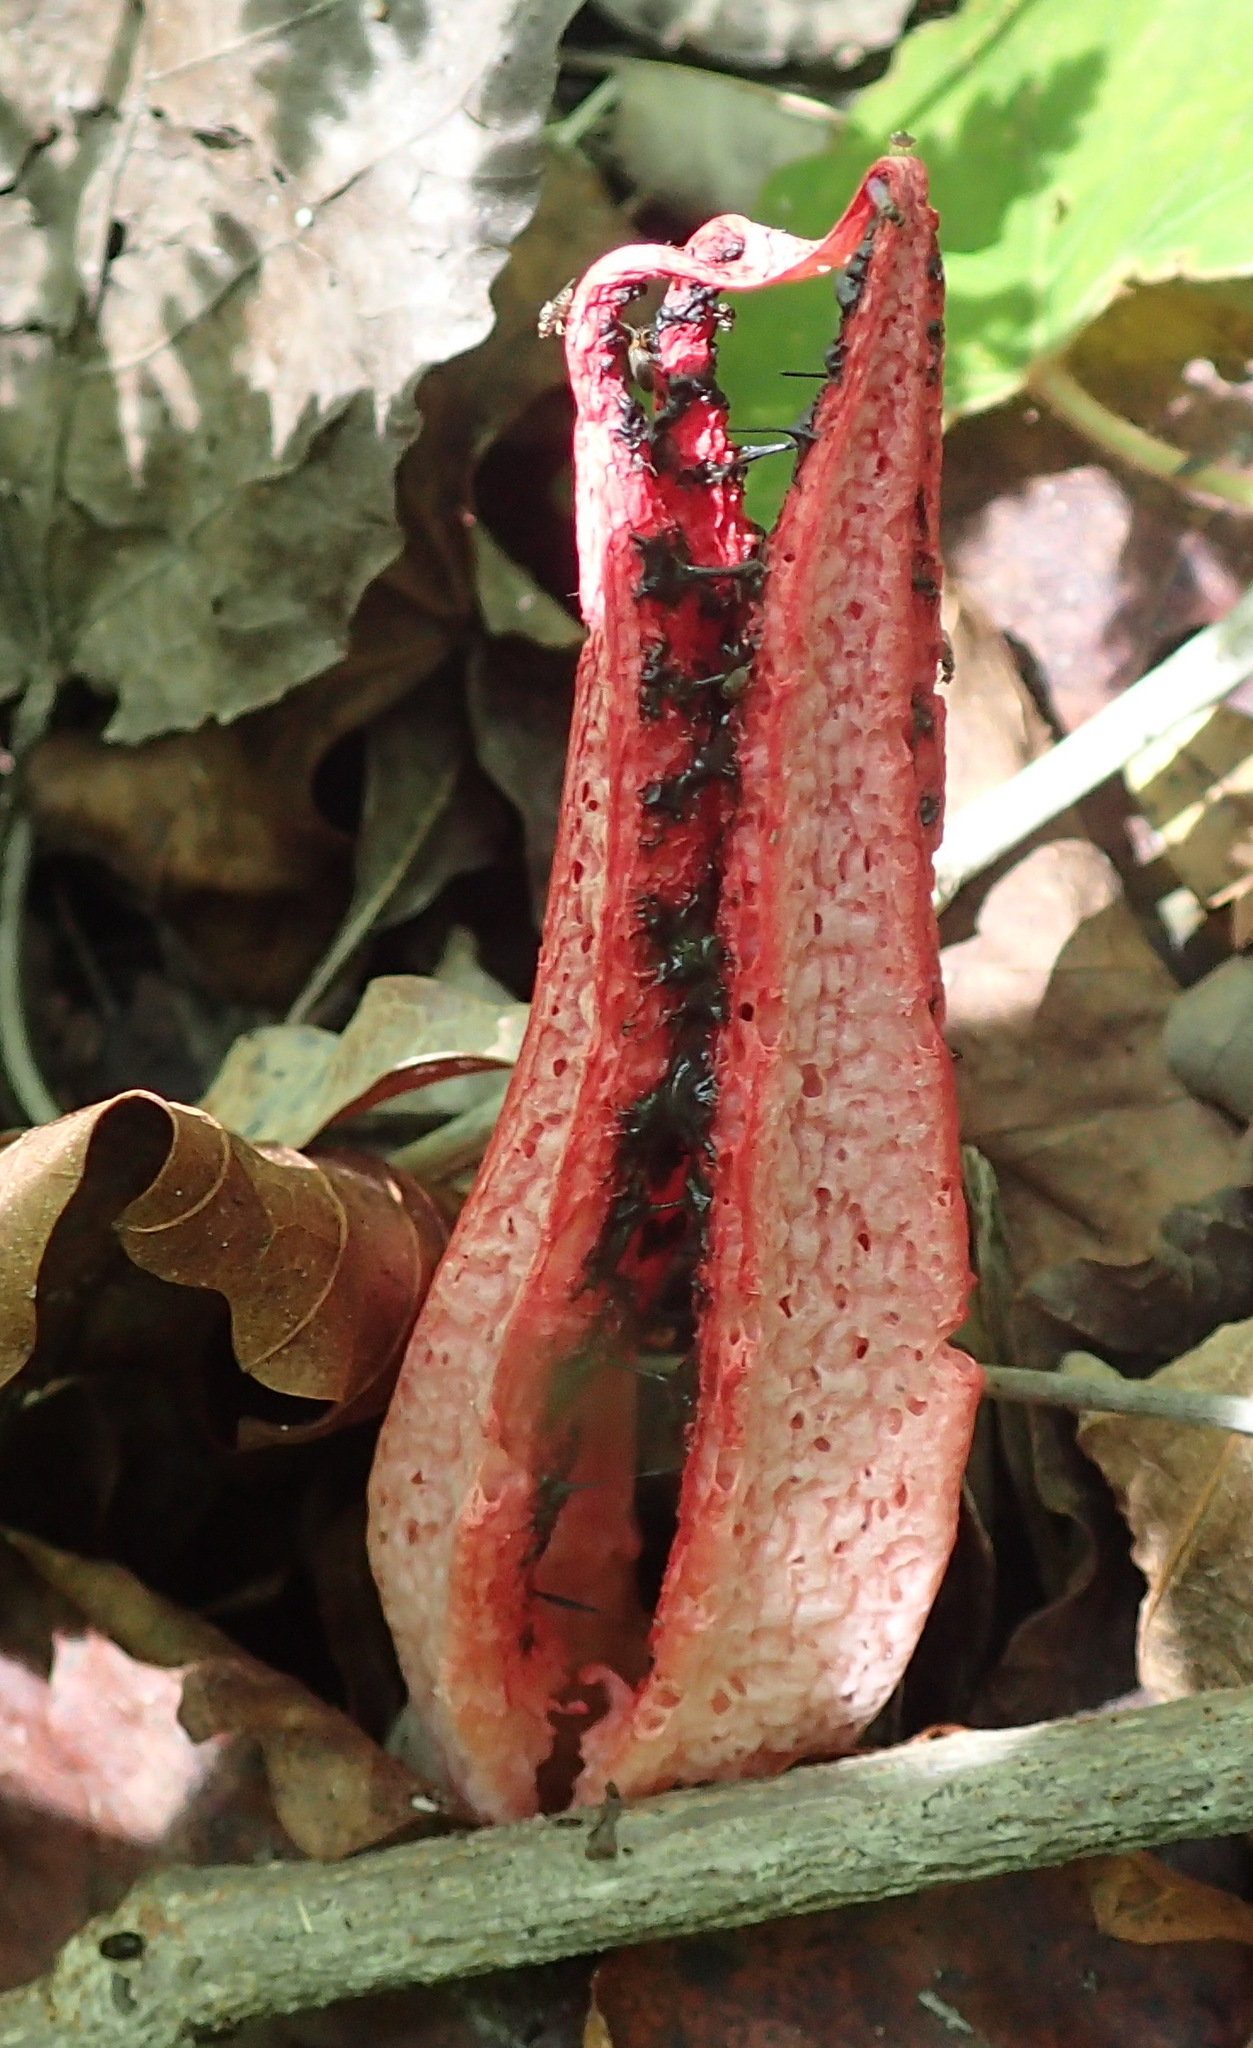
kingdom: Fungi
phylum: Basidiomycota
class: Agaricomycetes
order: Phallales
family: Phallaceae
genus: Clathrus
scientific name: Clathrus archeri
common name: Devil's fingers
